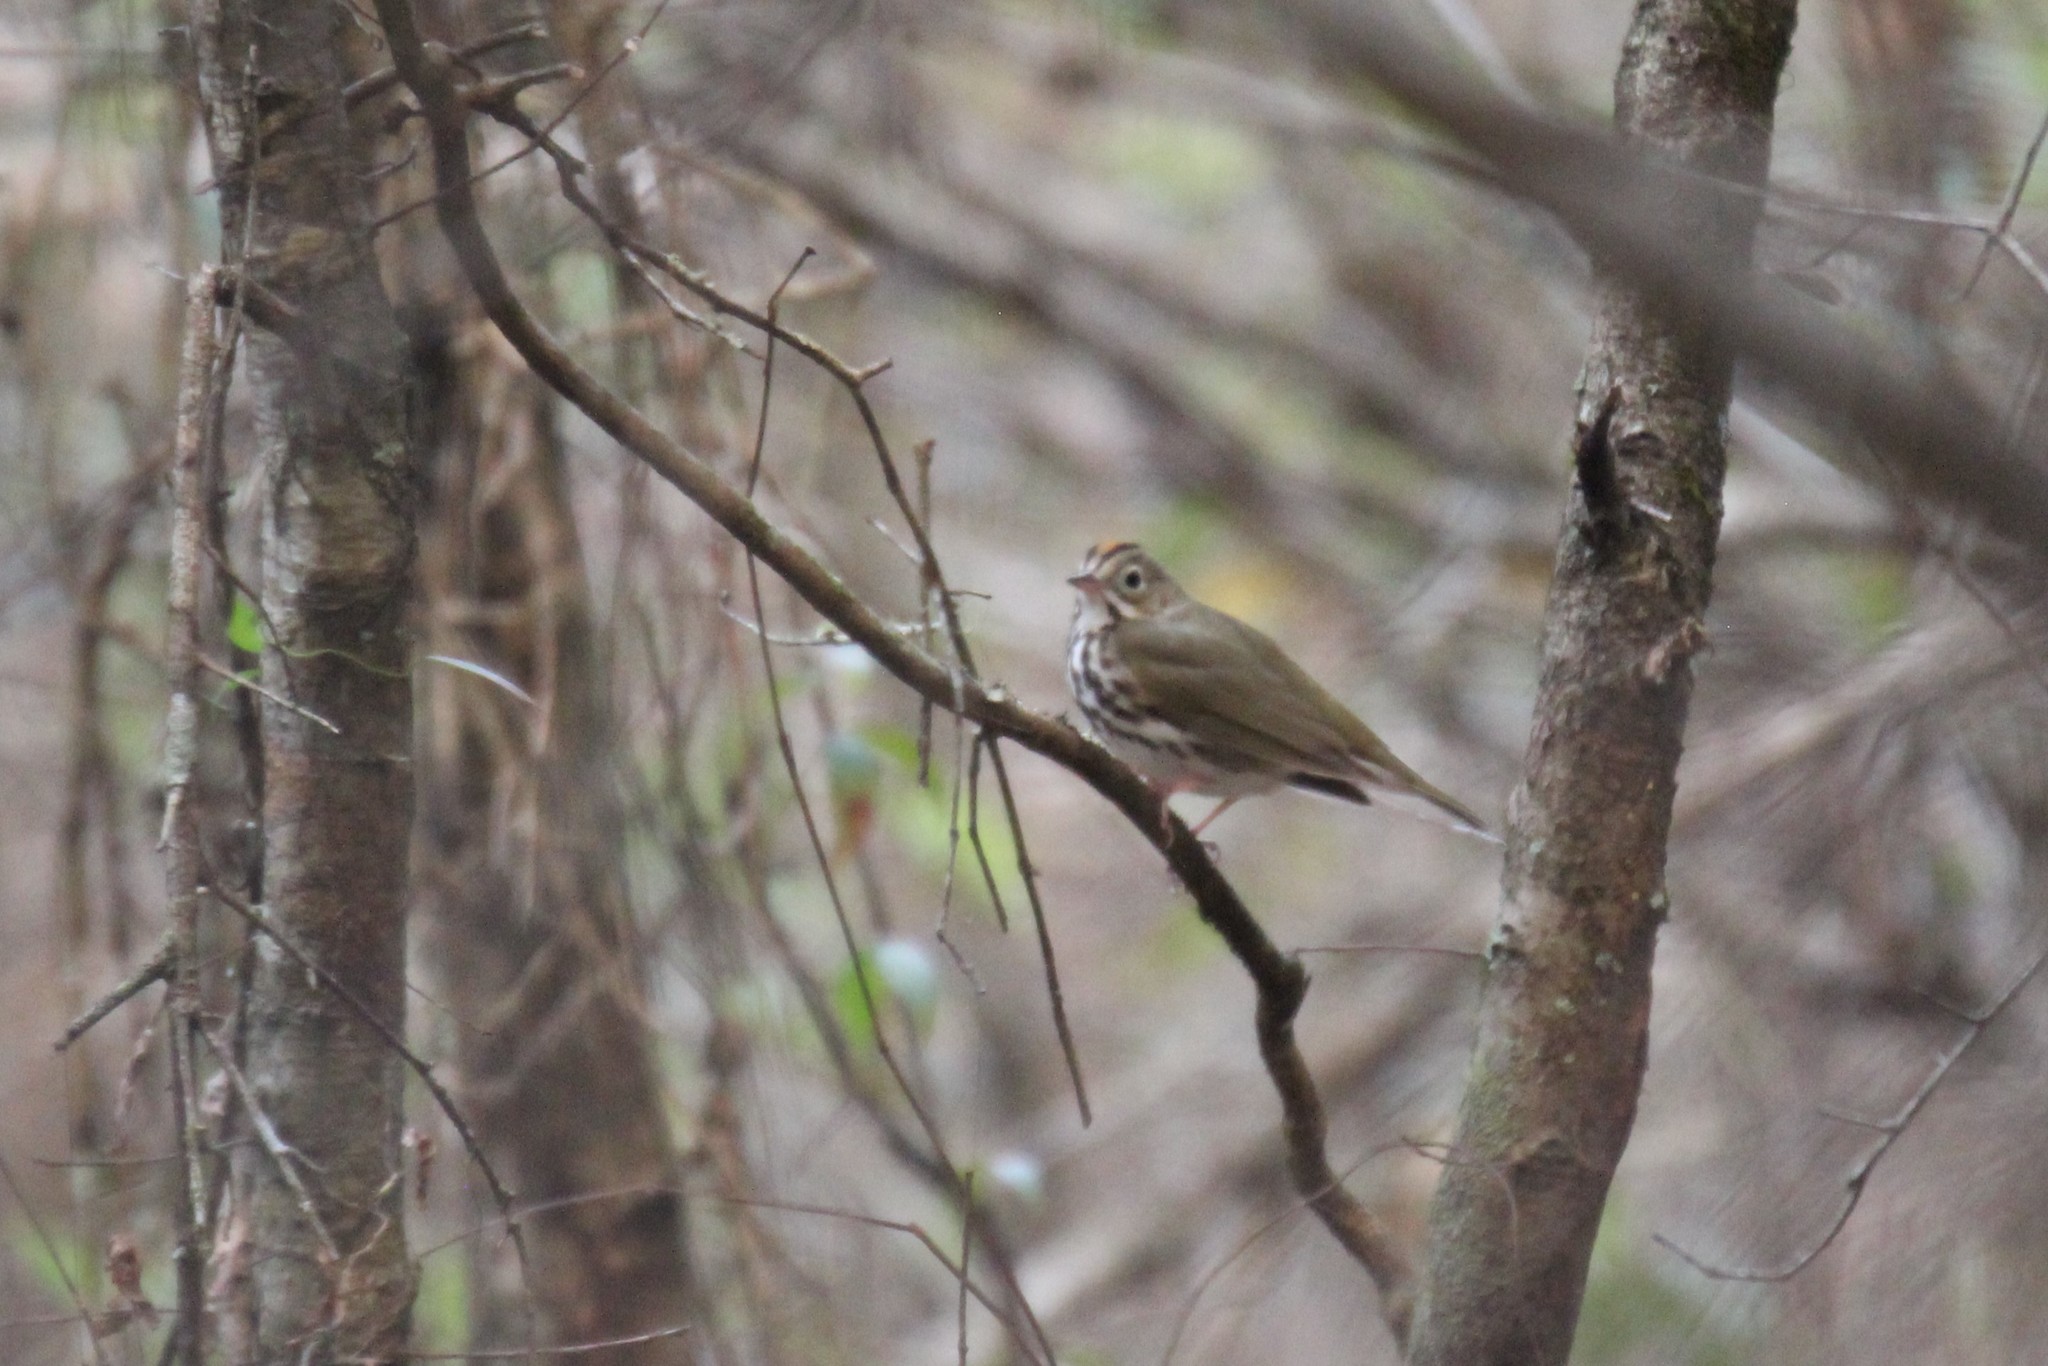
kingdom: Animalia
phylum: Chordata
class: Aves
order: Passeriformes
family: Parulidae
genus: Seiurus
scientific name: Seiurus aurocapilla
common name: Ovenbird
